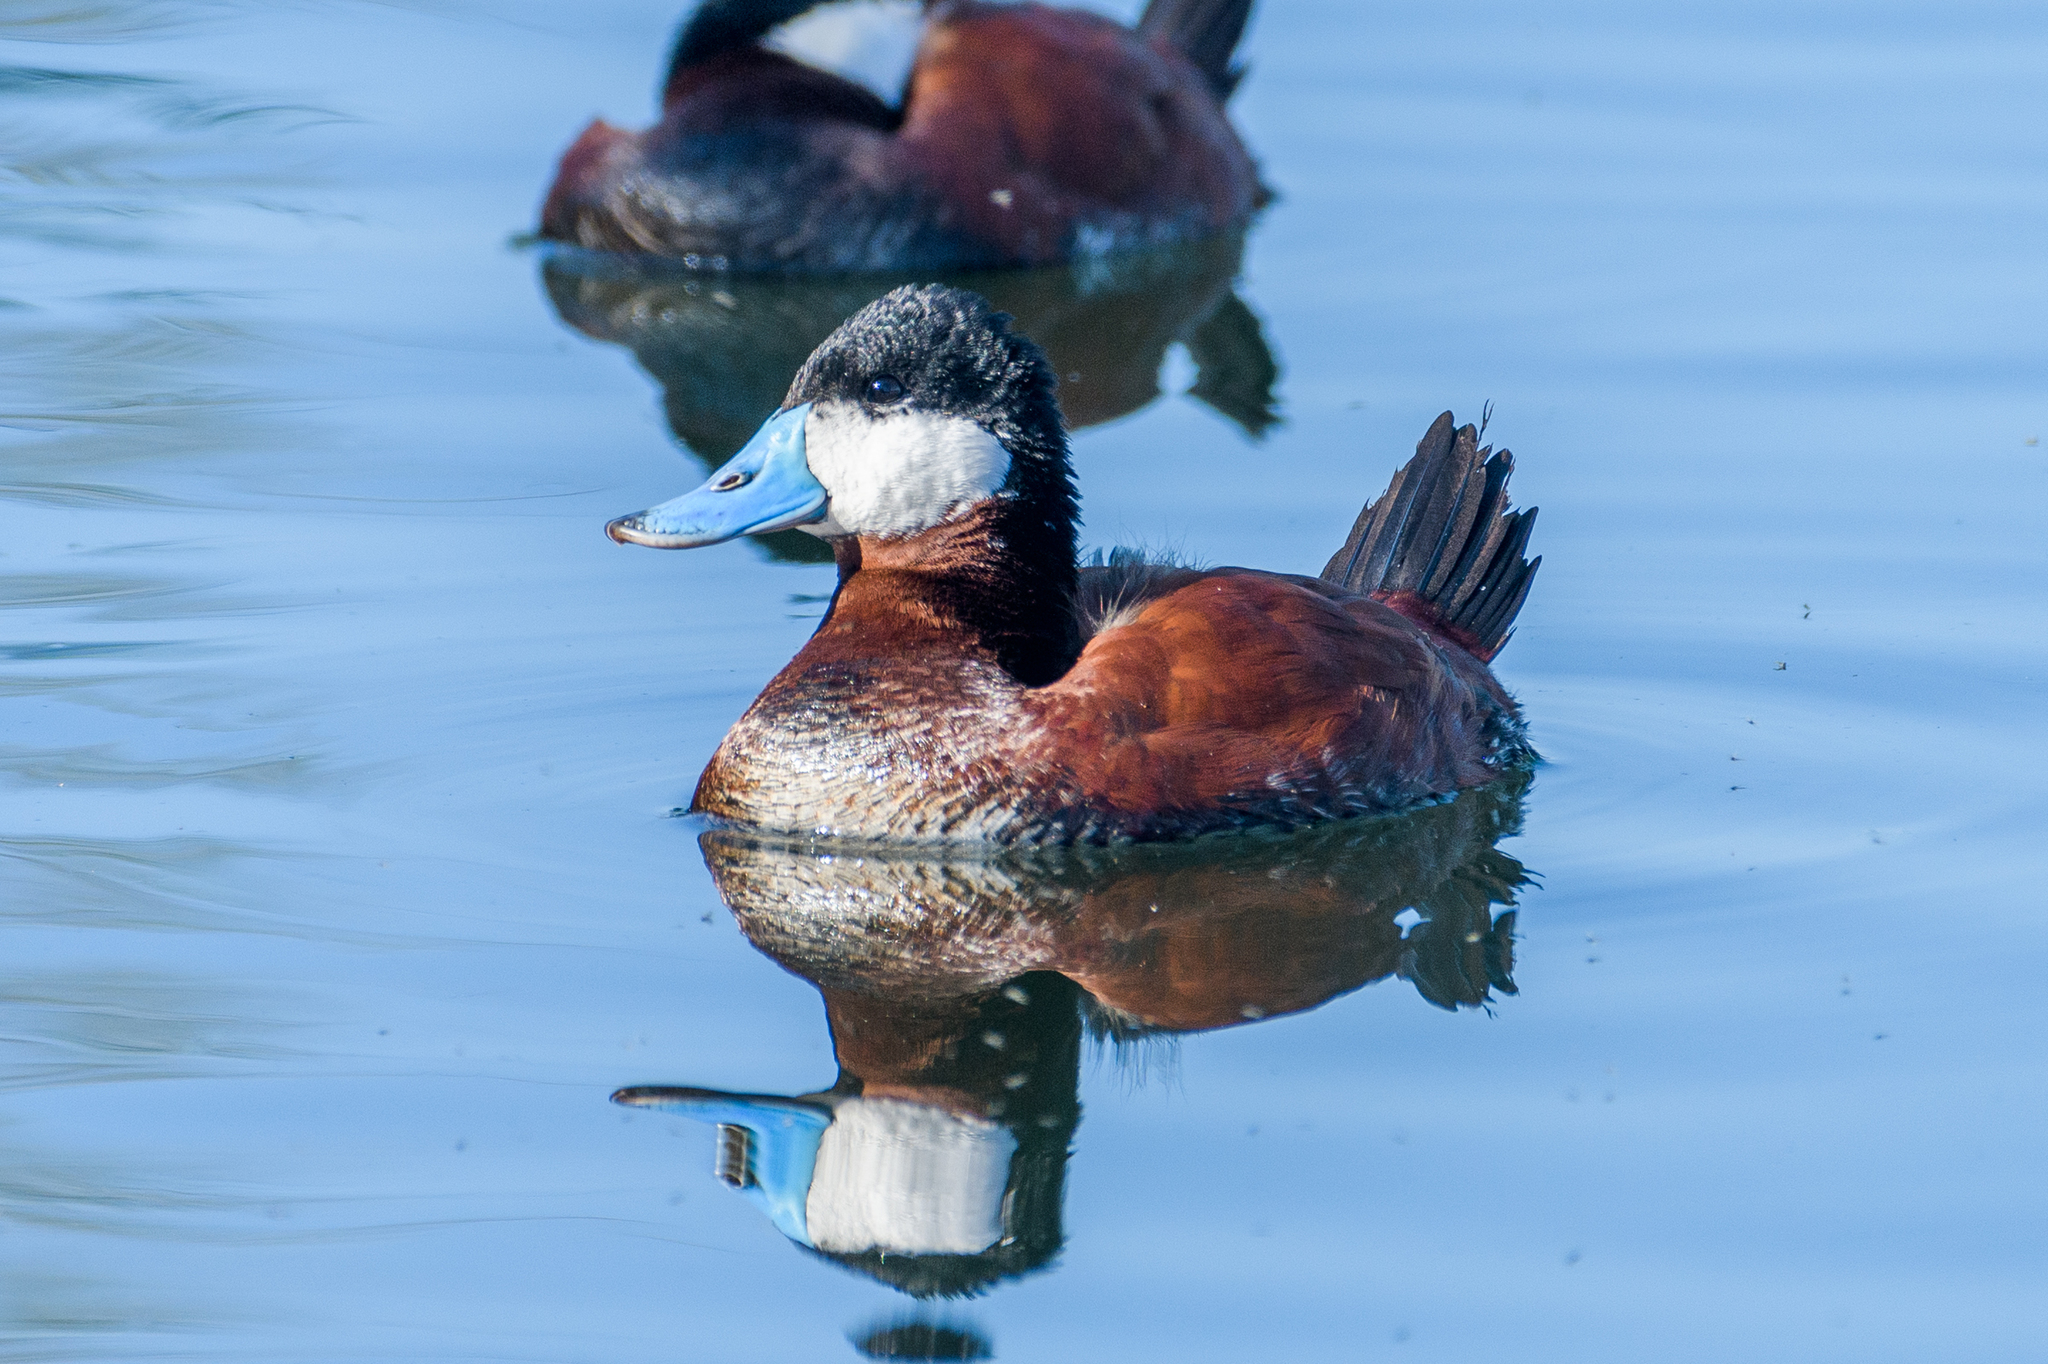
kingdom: Animalia
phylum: Chordata
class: Aves
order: Anseriformes
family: Anatidae
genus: Oxyura
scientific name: Oxyura jamaicensis
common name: Ruddy duck
